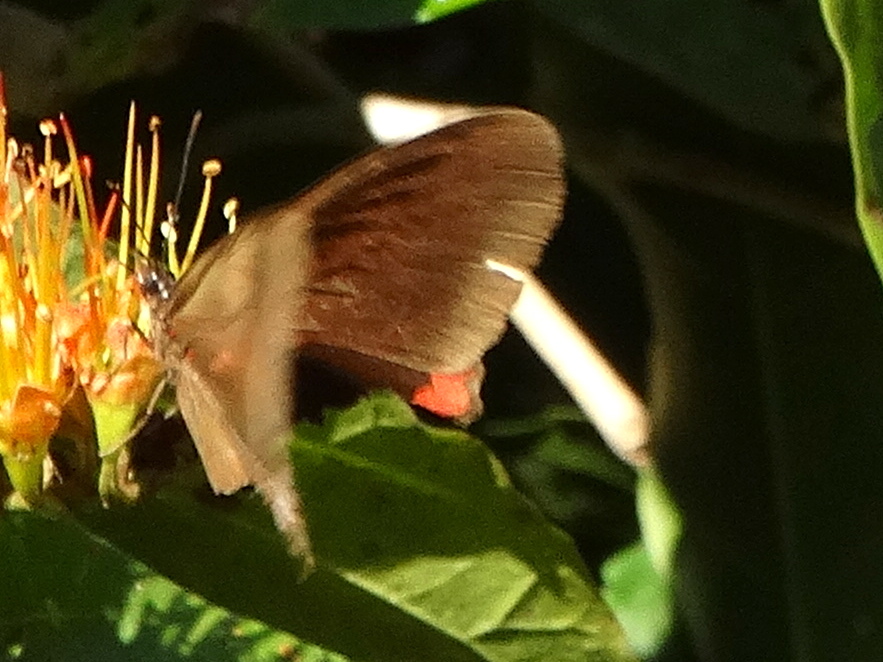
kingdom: Animalia
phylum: Arthropoda
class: Insecta
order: Lepidoptera
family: Nymphalidae
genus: Biblis
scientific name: Biblis aganisa
